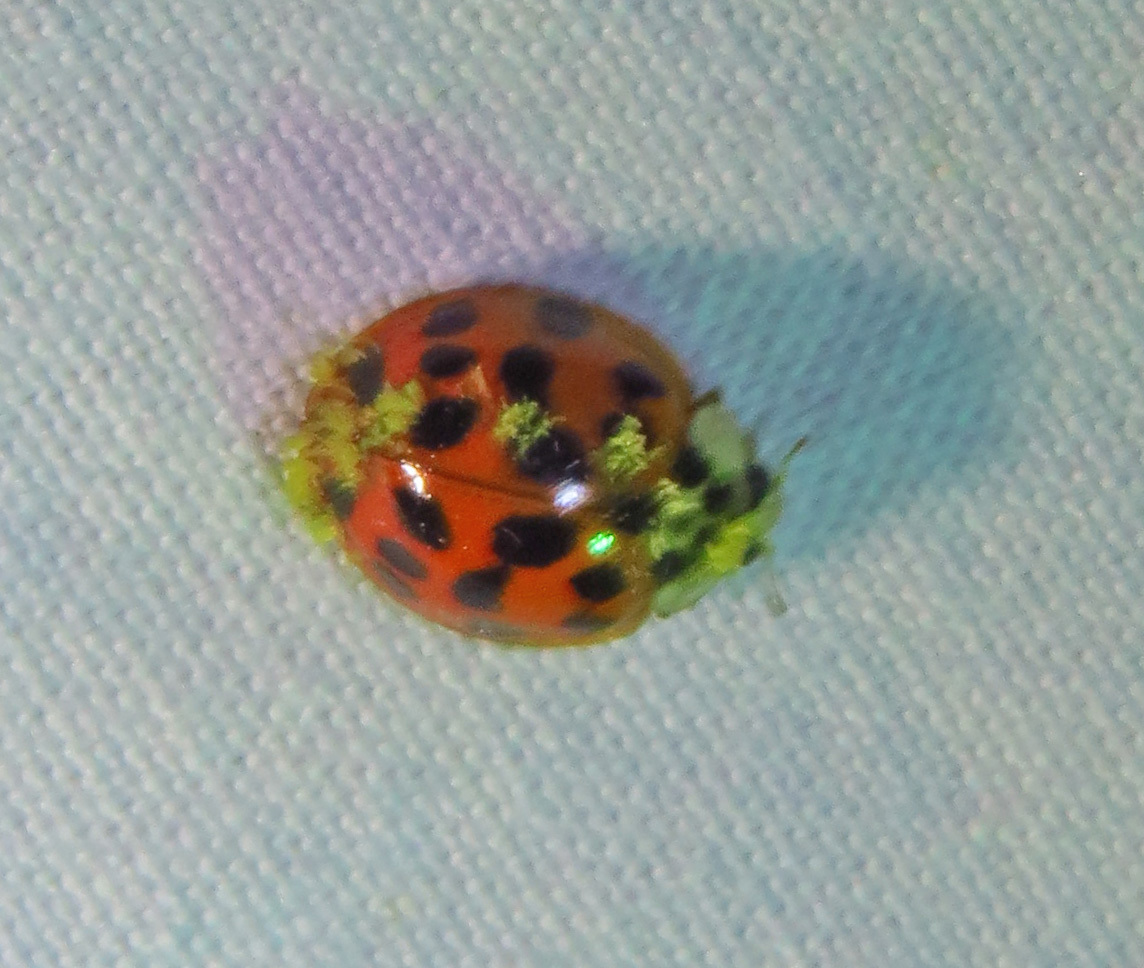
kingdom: Fungi
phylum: Ascomycota
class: Laboulbeniomycetes
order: Laboulbeniales
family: Laboulbeniaceae
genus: Hesperomyces
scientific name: Hesperomyces harmoniae
